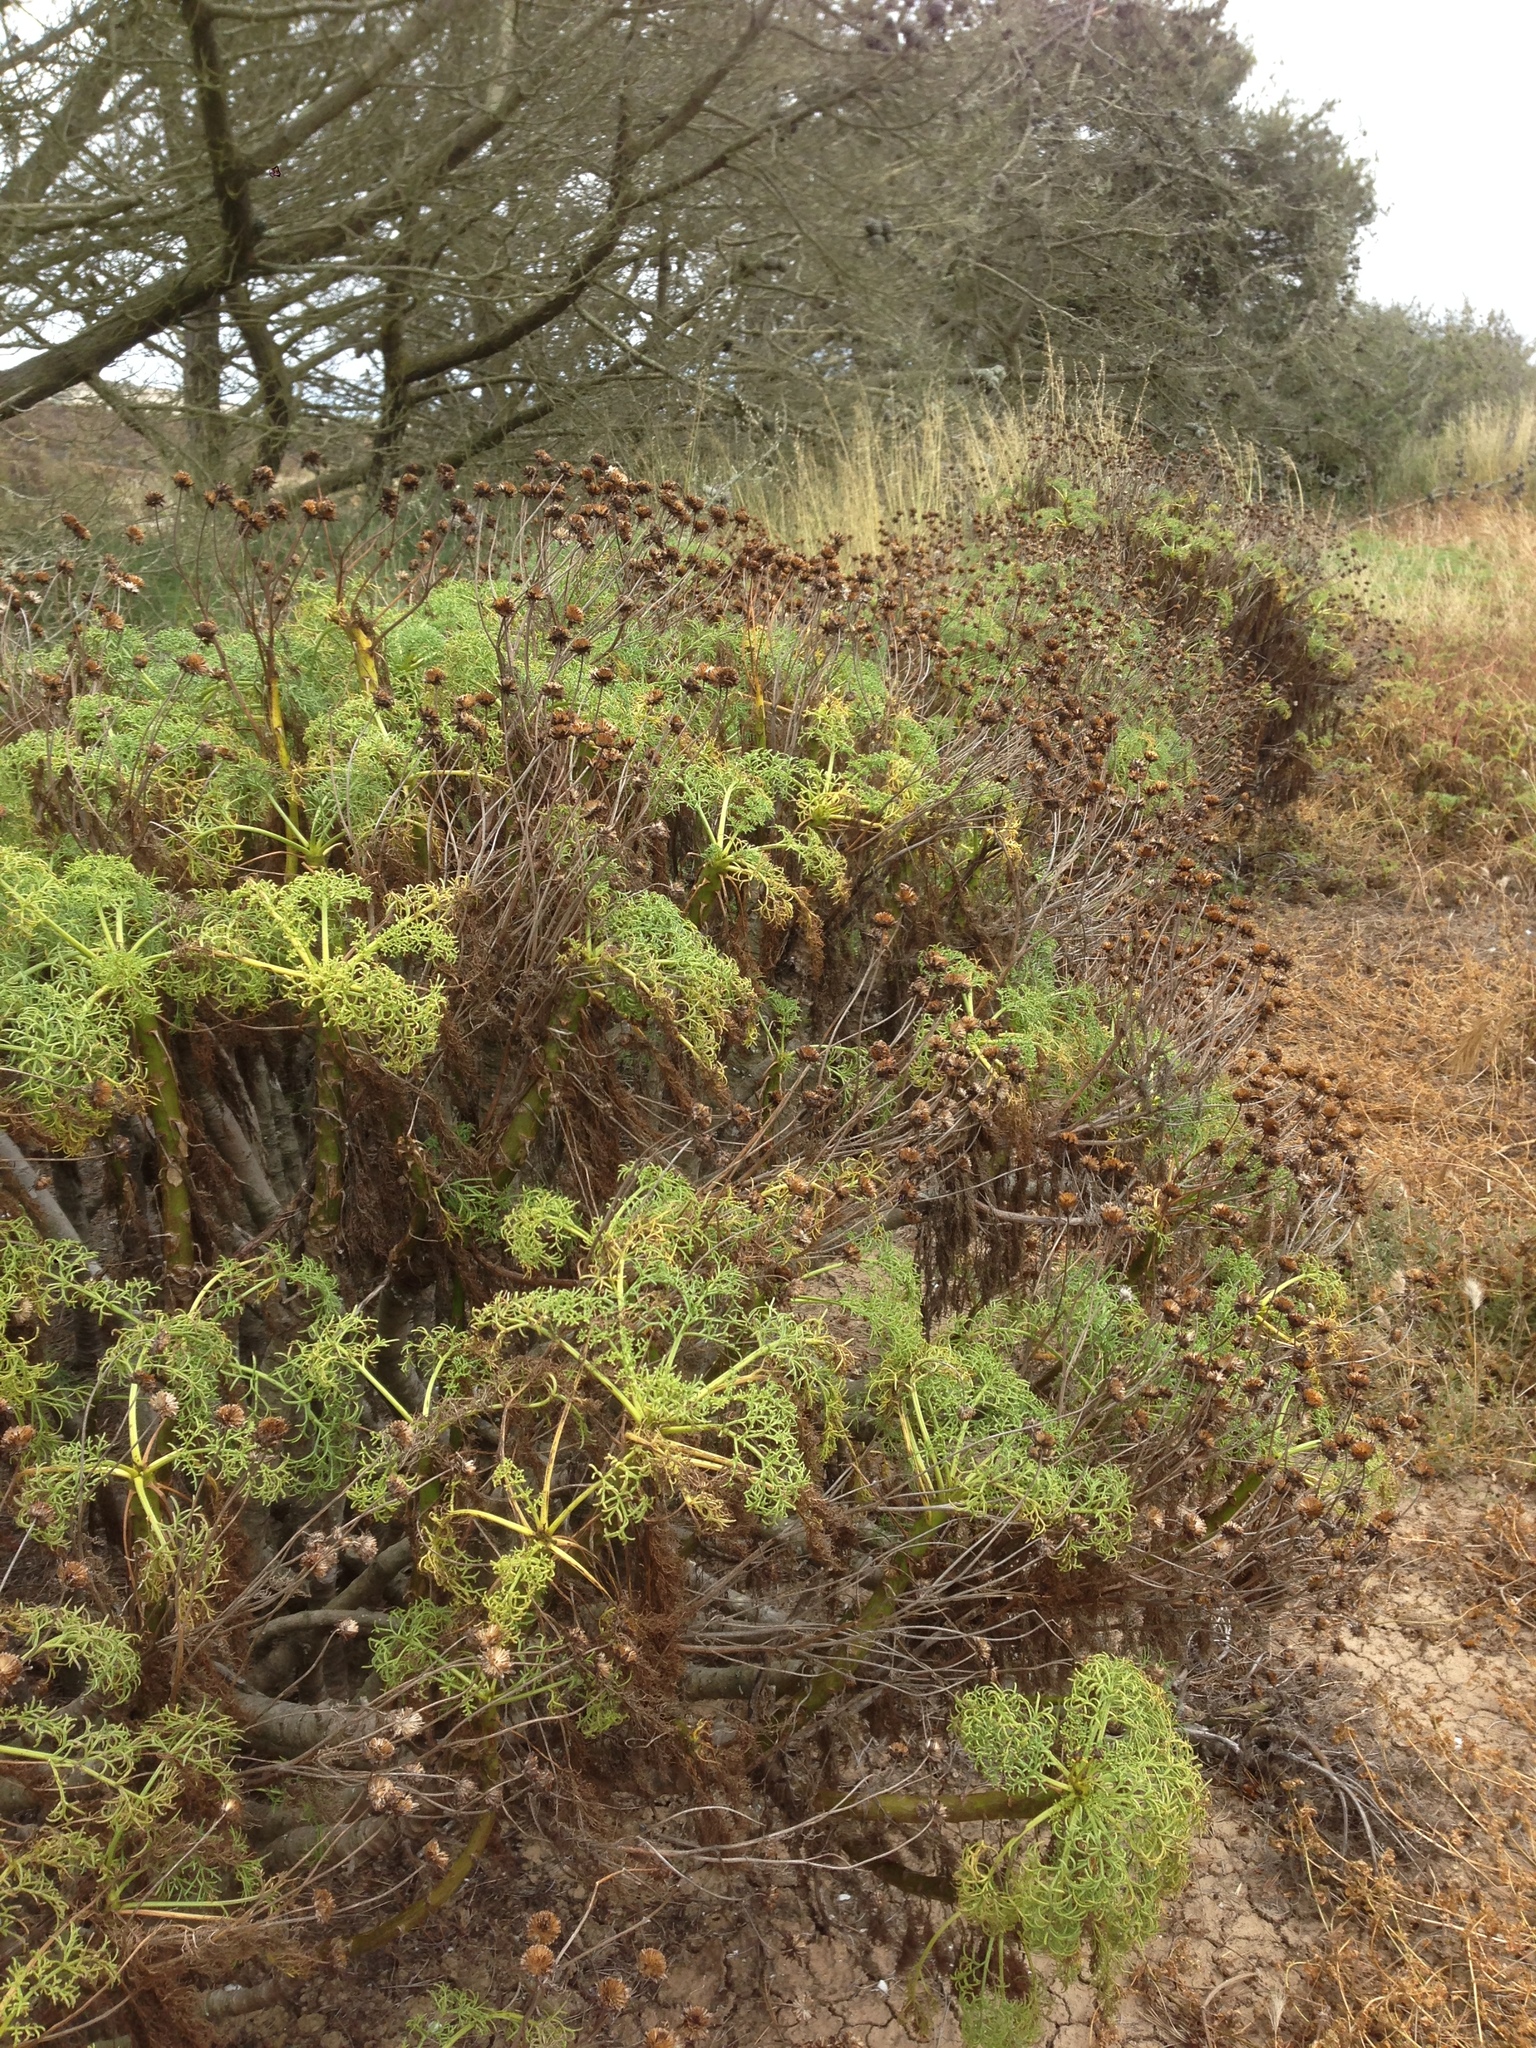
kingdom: Plantae
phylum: Tracheophyta
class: Magnoliopsida
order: Asterales
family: Asteraceae
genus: Coreopsis
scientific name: Coreopsis gigantea
